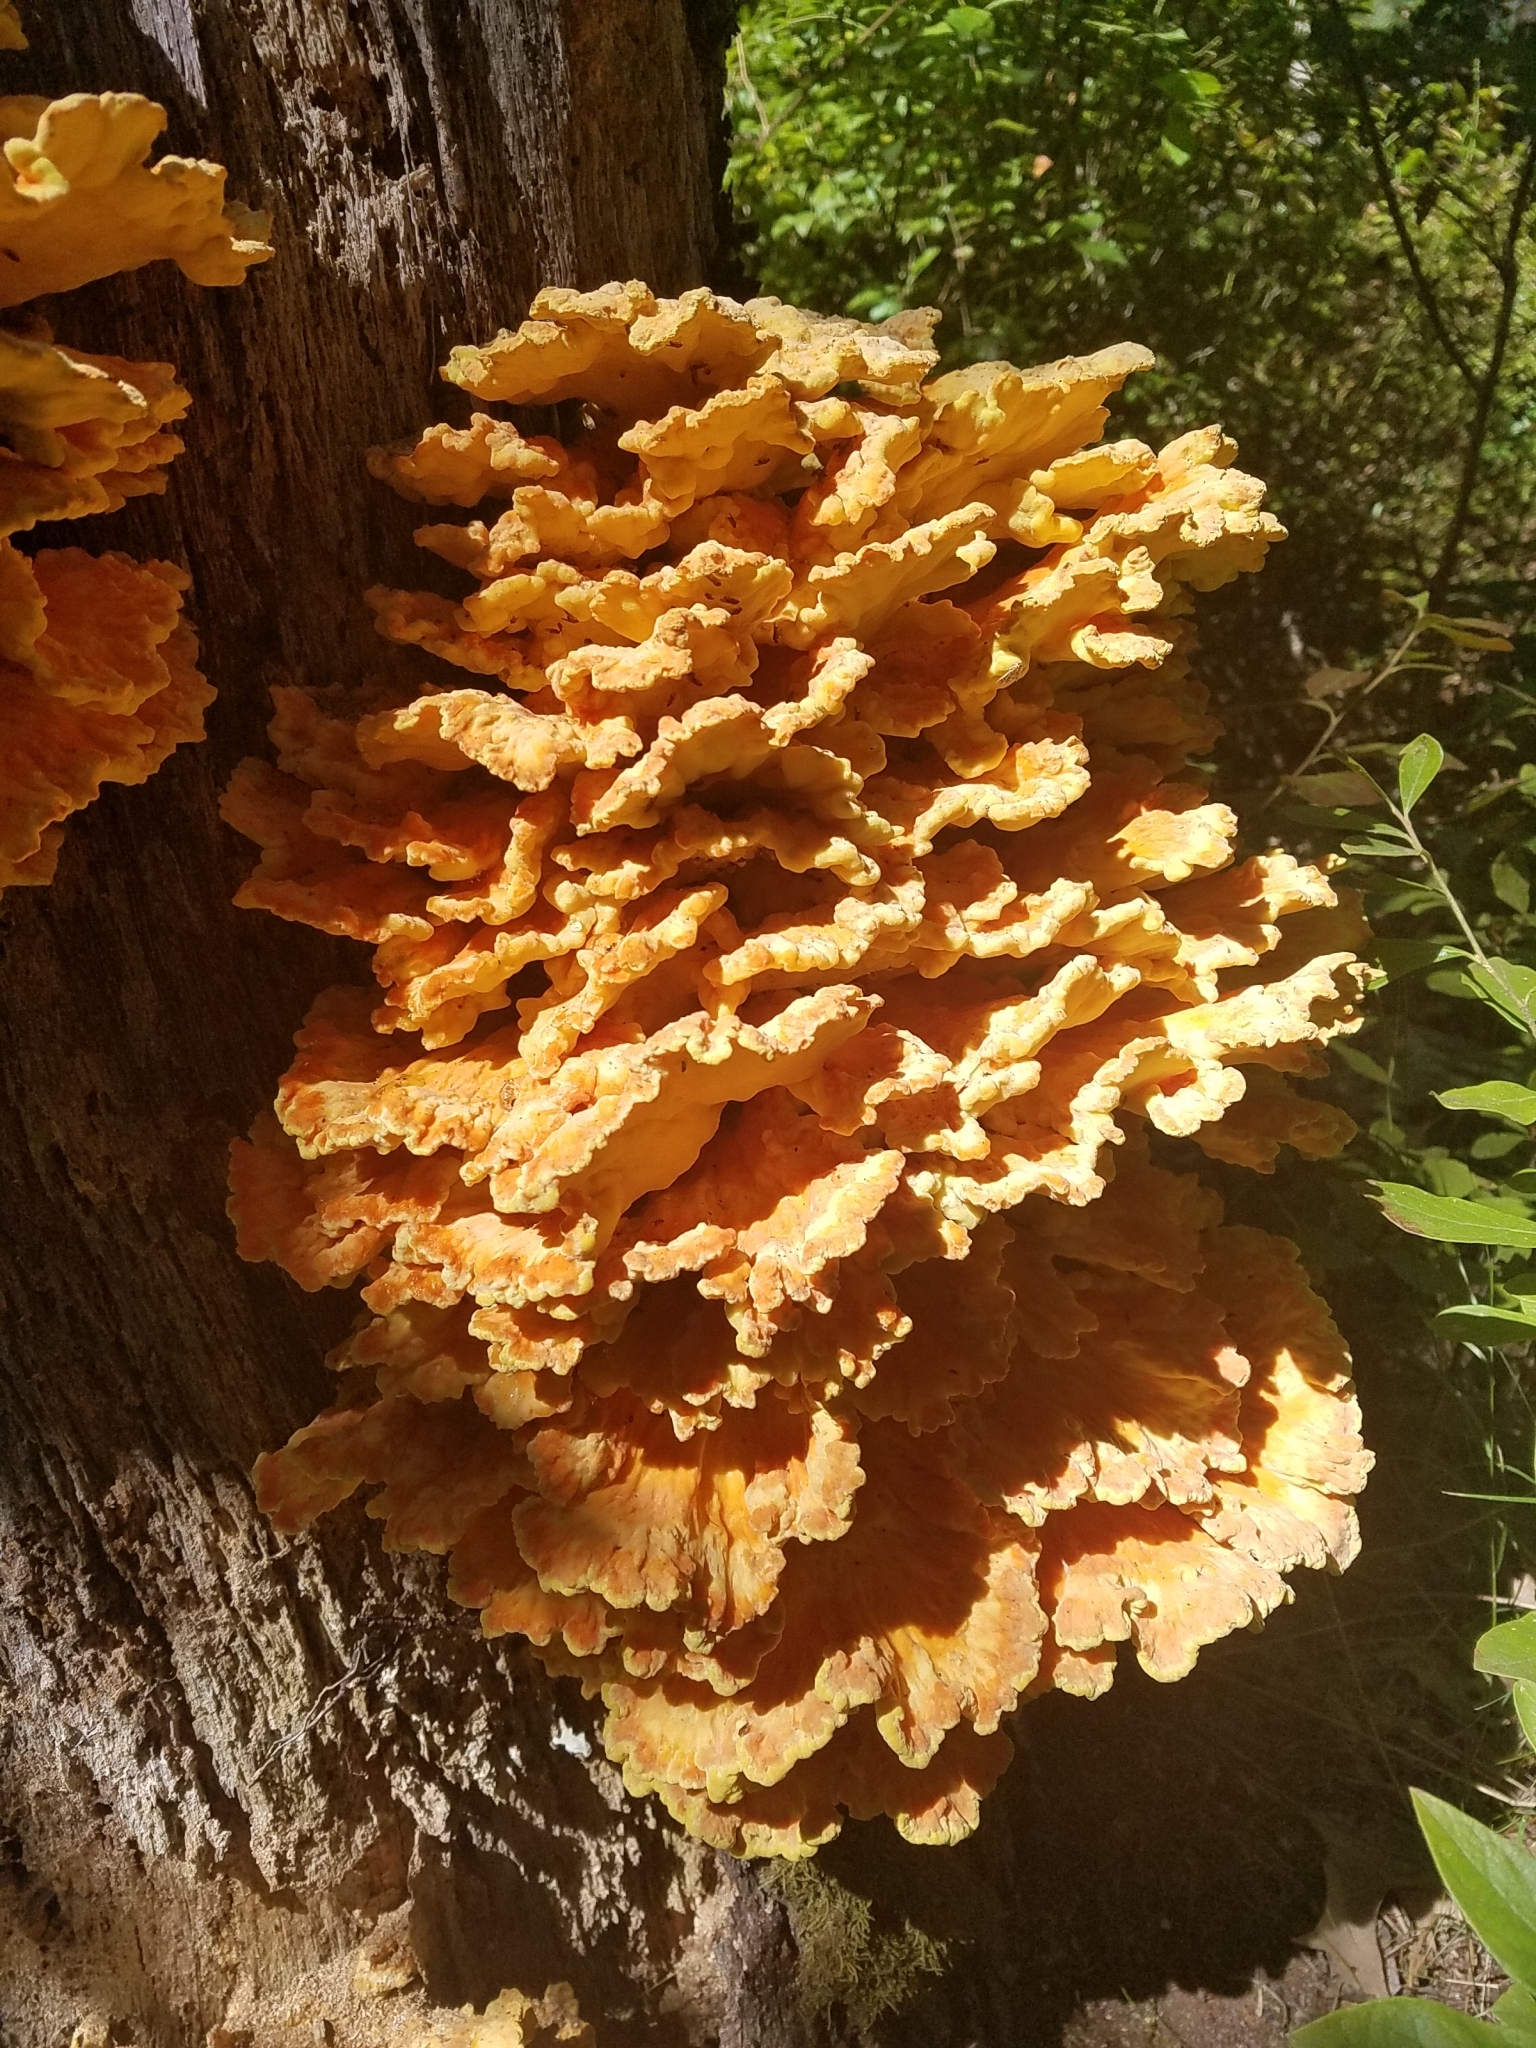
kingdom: Fungi
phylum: Basidiomycota
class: Agaricomycetes
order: Polyporales
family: Laetiporaceae
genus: Laetiporus
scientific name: Laetiporus sulphureus
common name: Chicken of the woods
